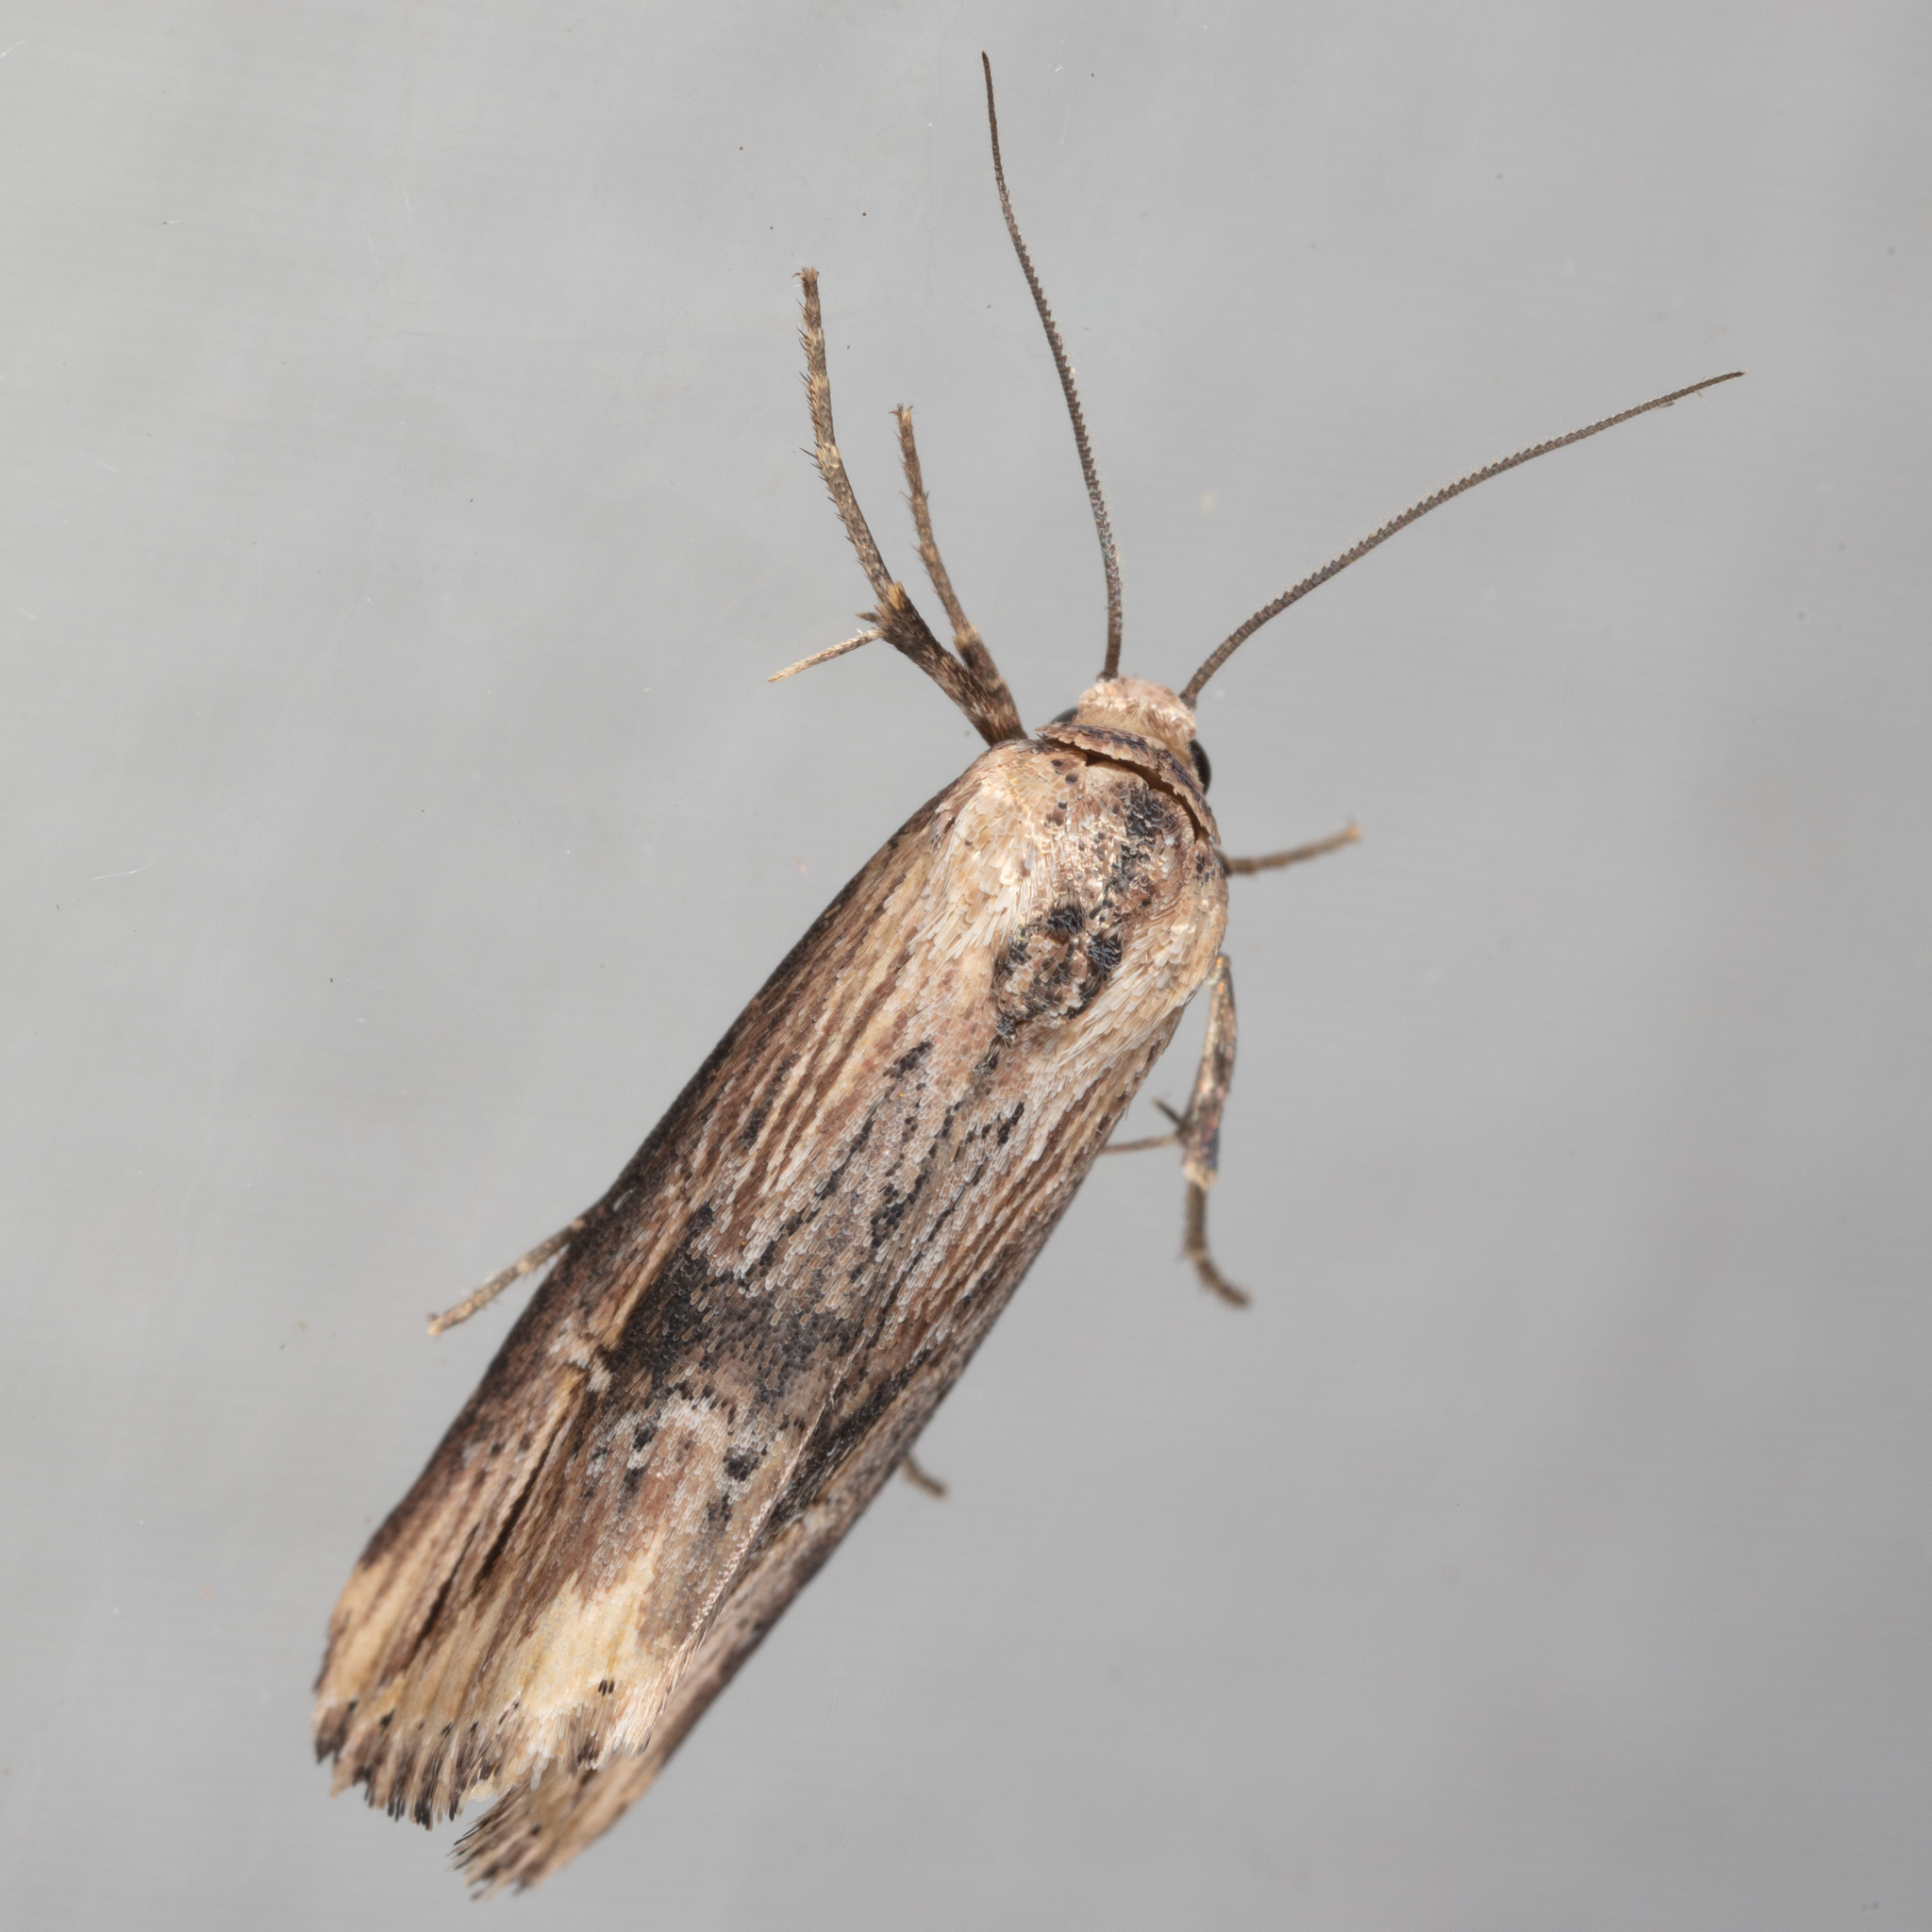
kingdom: Animalia
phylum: Arthropoda
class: Insecta
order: Lepidoptera
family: Noctuidae
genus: Crambodes
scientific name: Crambodes talidiformis
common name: Verbena moth
